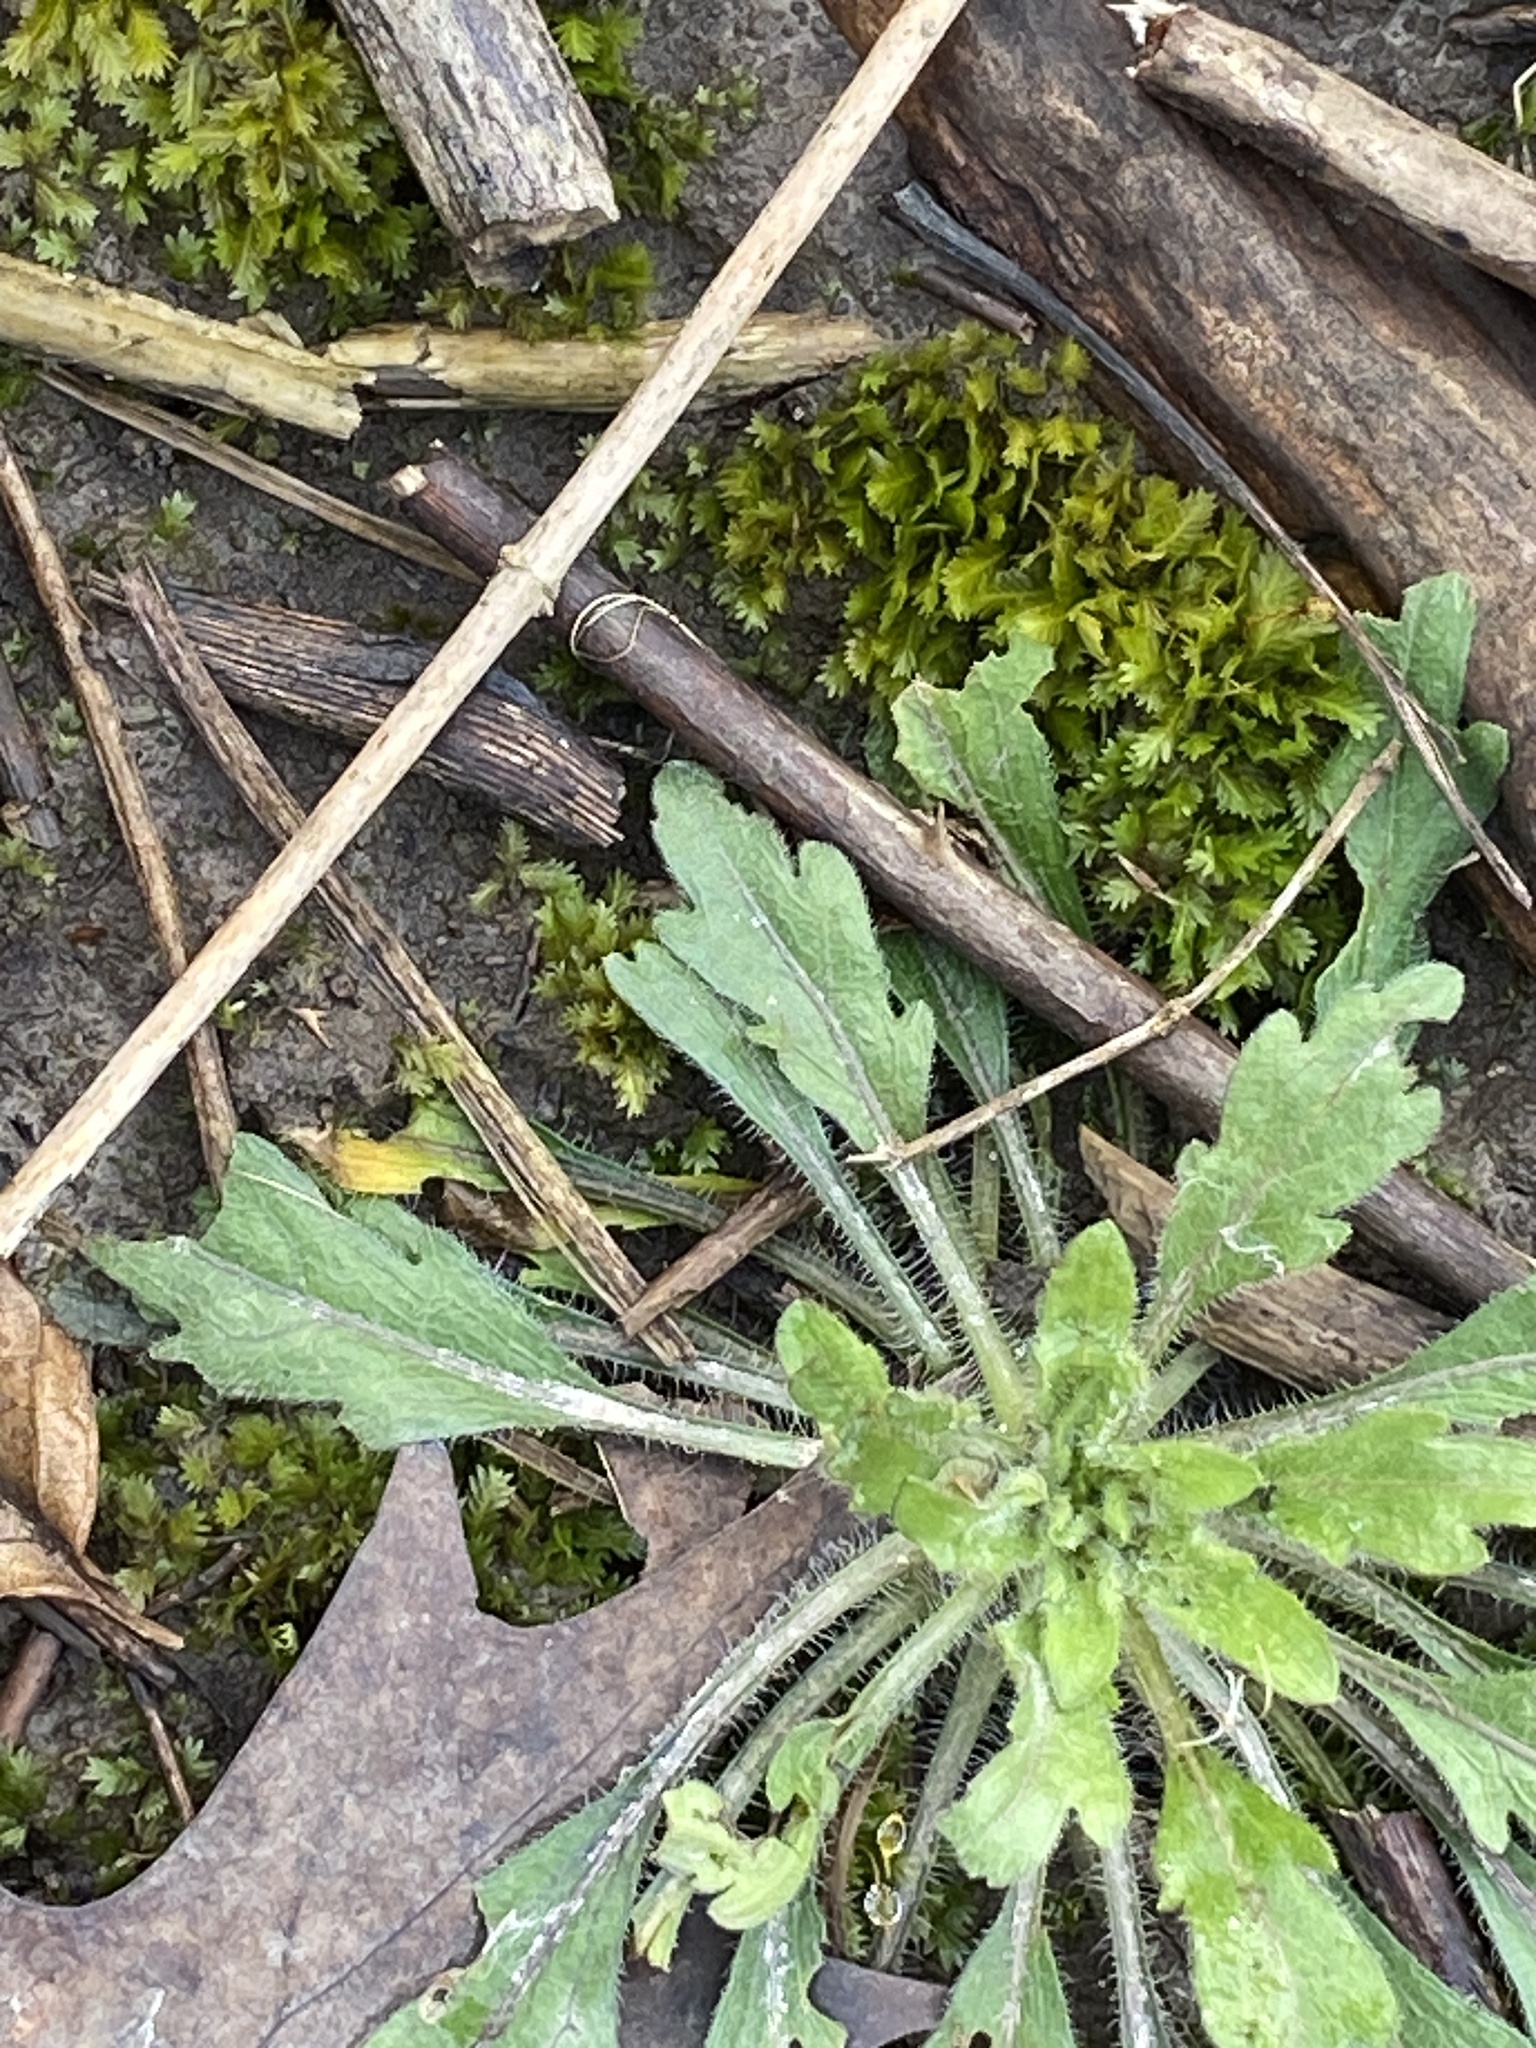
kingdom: Plantae
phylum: Tracheophyta
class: Magnoliopsida
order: Asterales
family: Asteraceae
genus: Erigeron
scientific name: Erigeron canadensis
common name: Canadian fleabane
